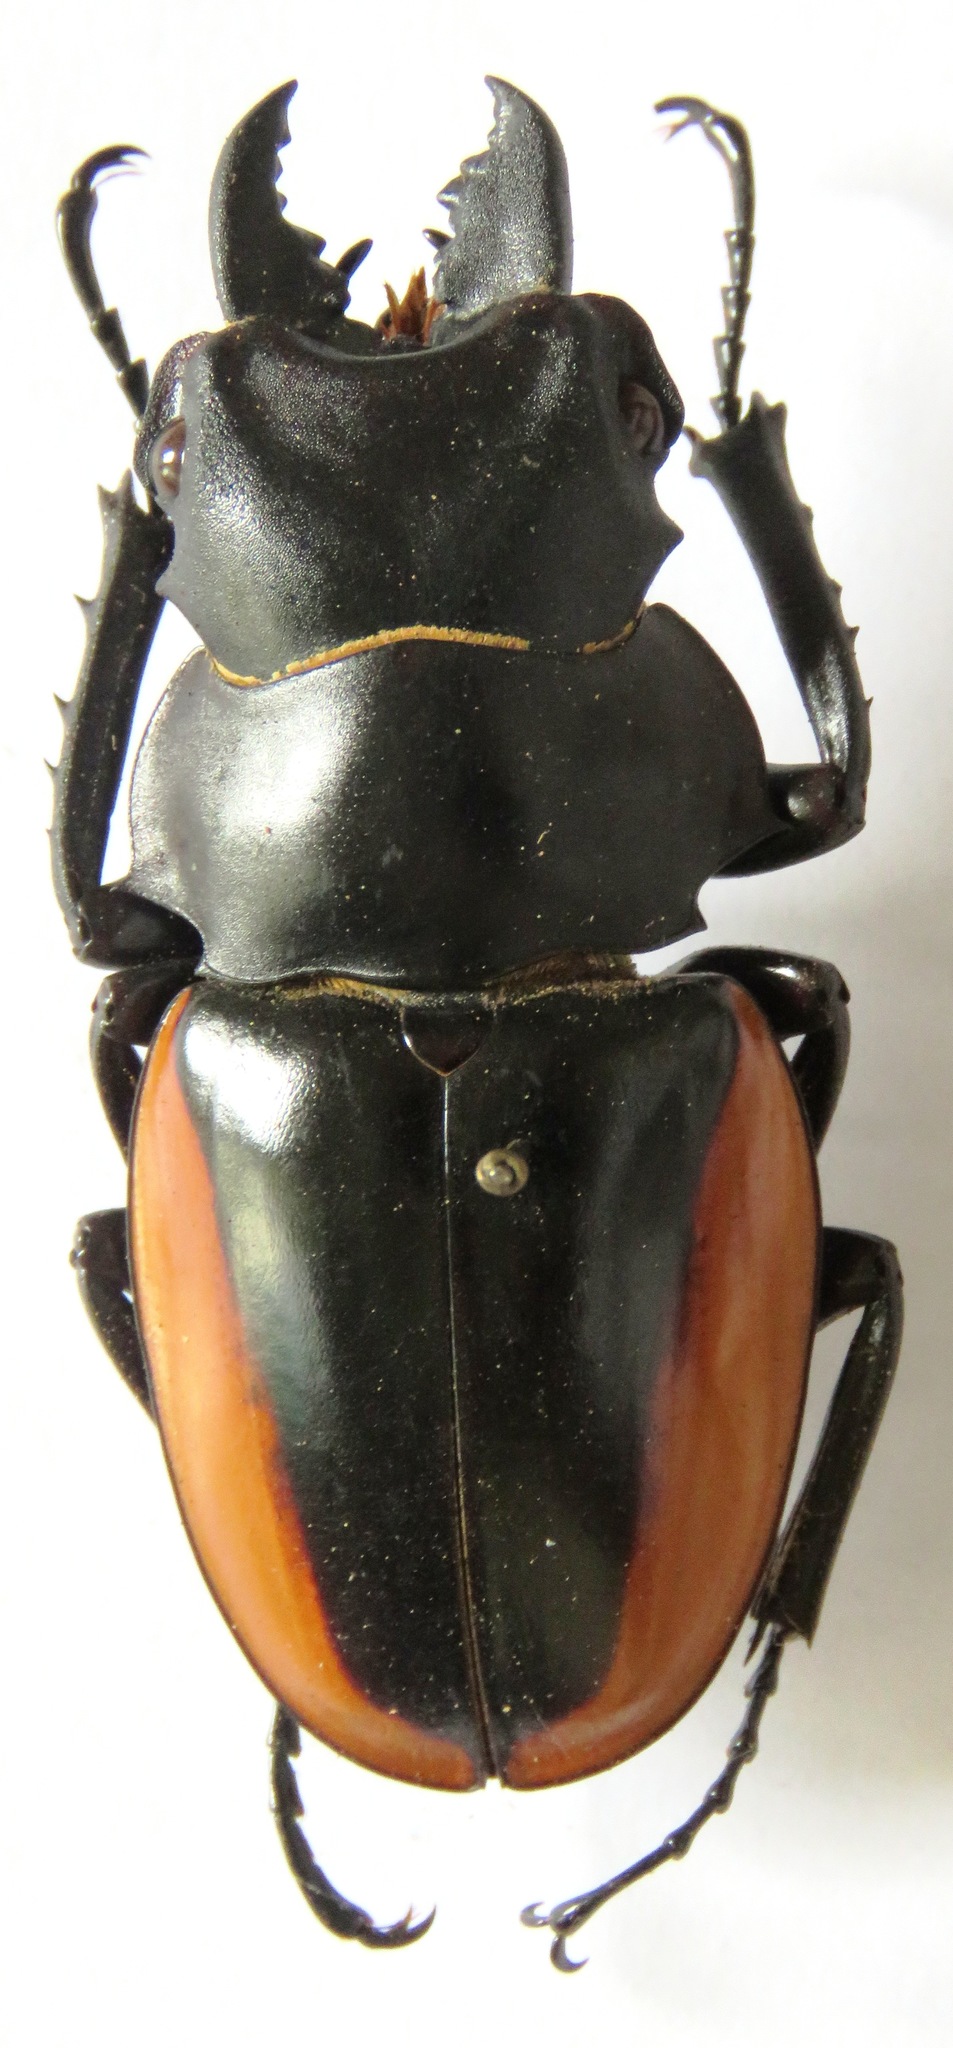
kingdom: Animalia
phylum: Arthropoda
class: Insecta
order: Coleoptera
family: Lucanidae
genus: Odontolabis
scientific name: Odontolabis cuvera
